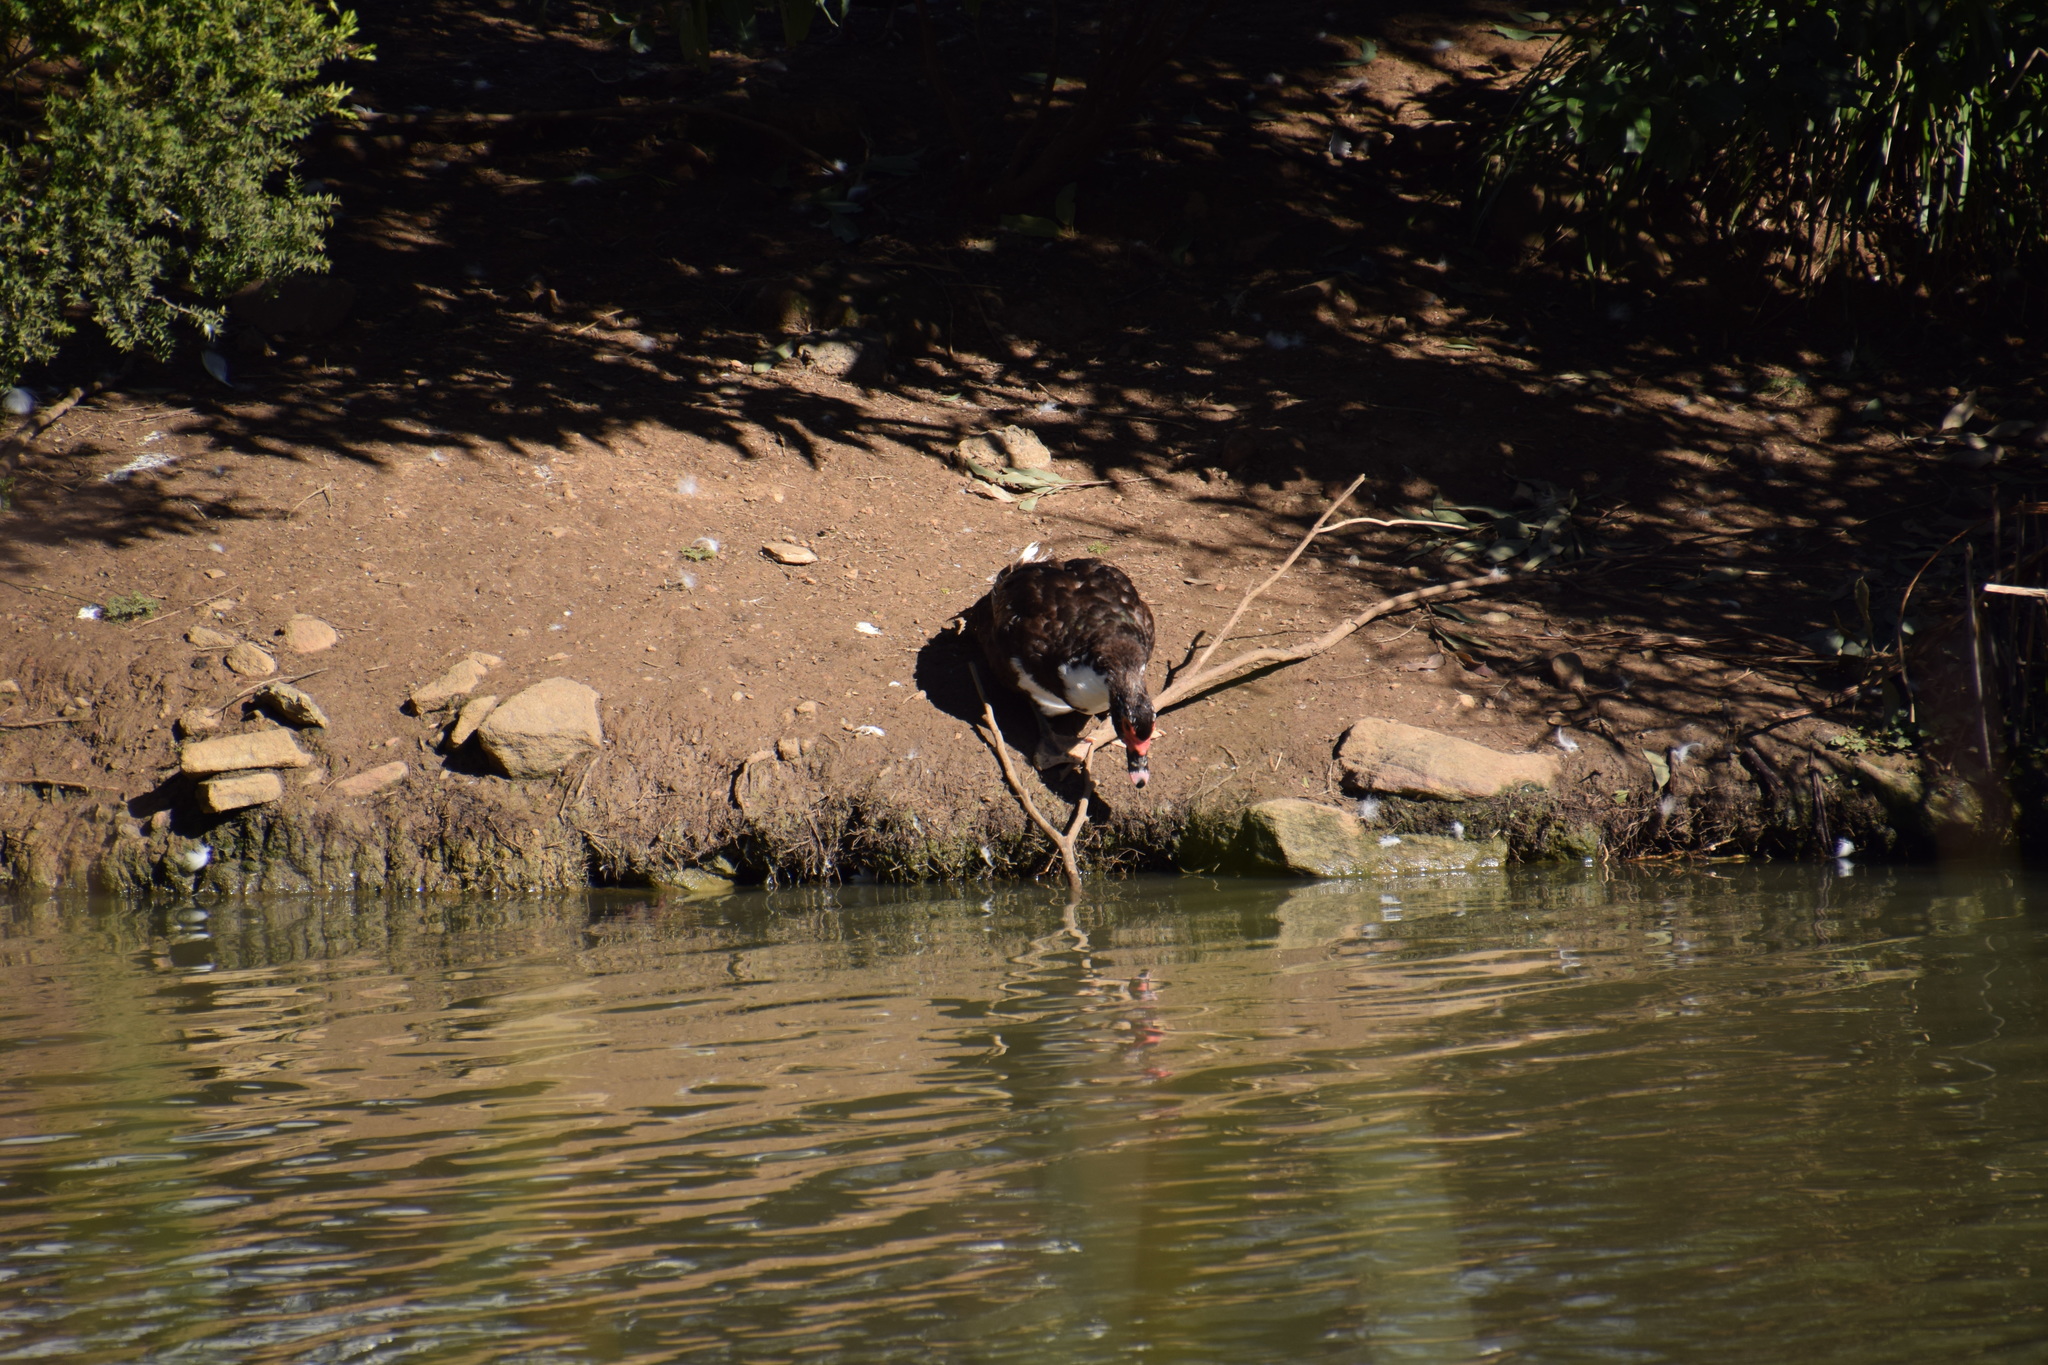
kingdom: Animalia
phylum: Chordata
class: Aves
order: Anseriformes
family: Anatidae
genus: Cairina
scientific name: Cairina moschata
